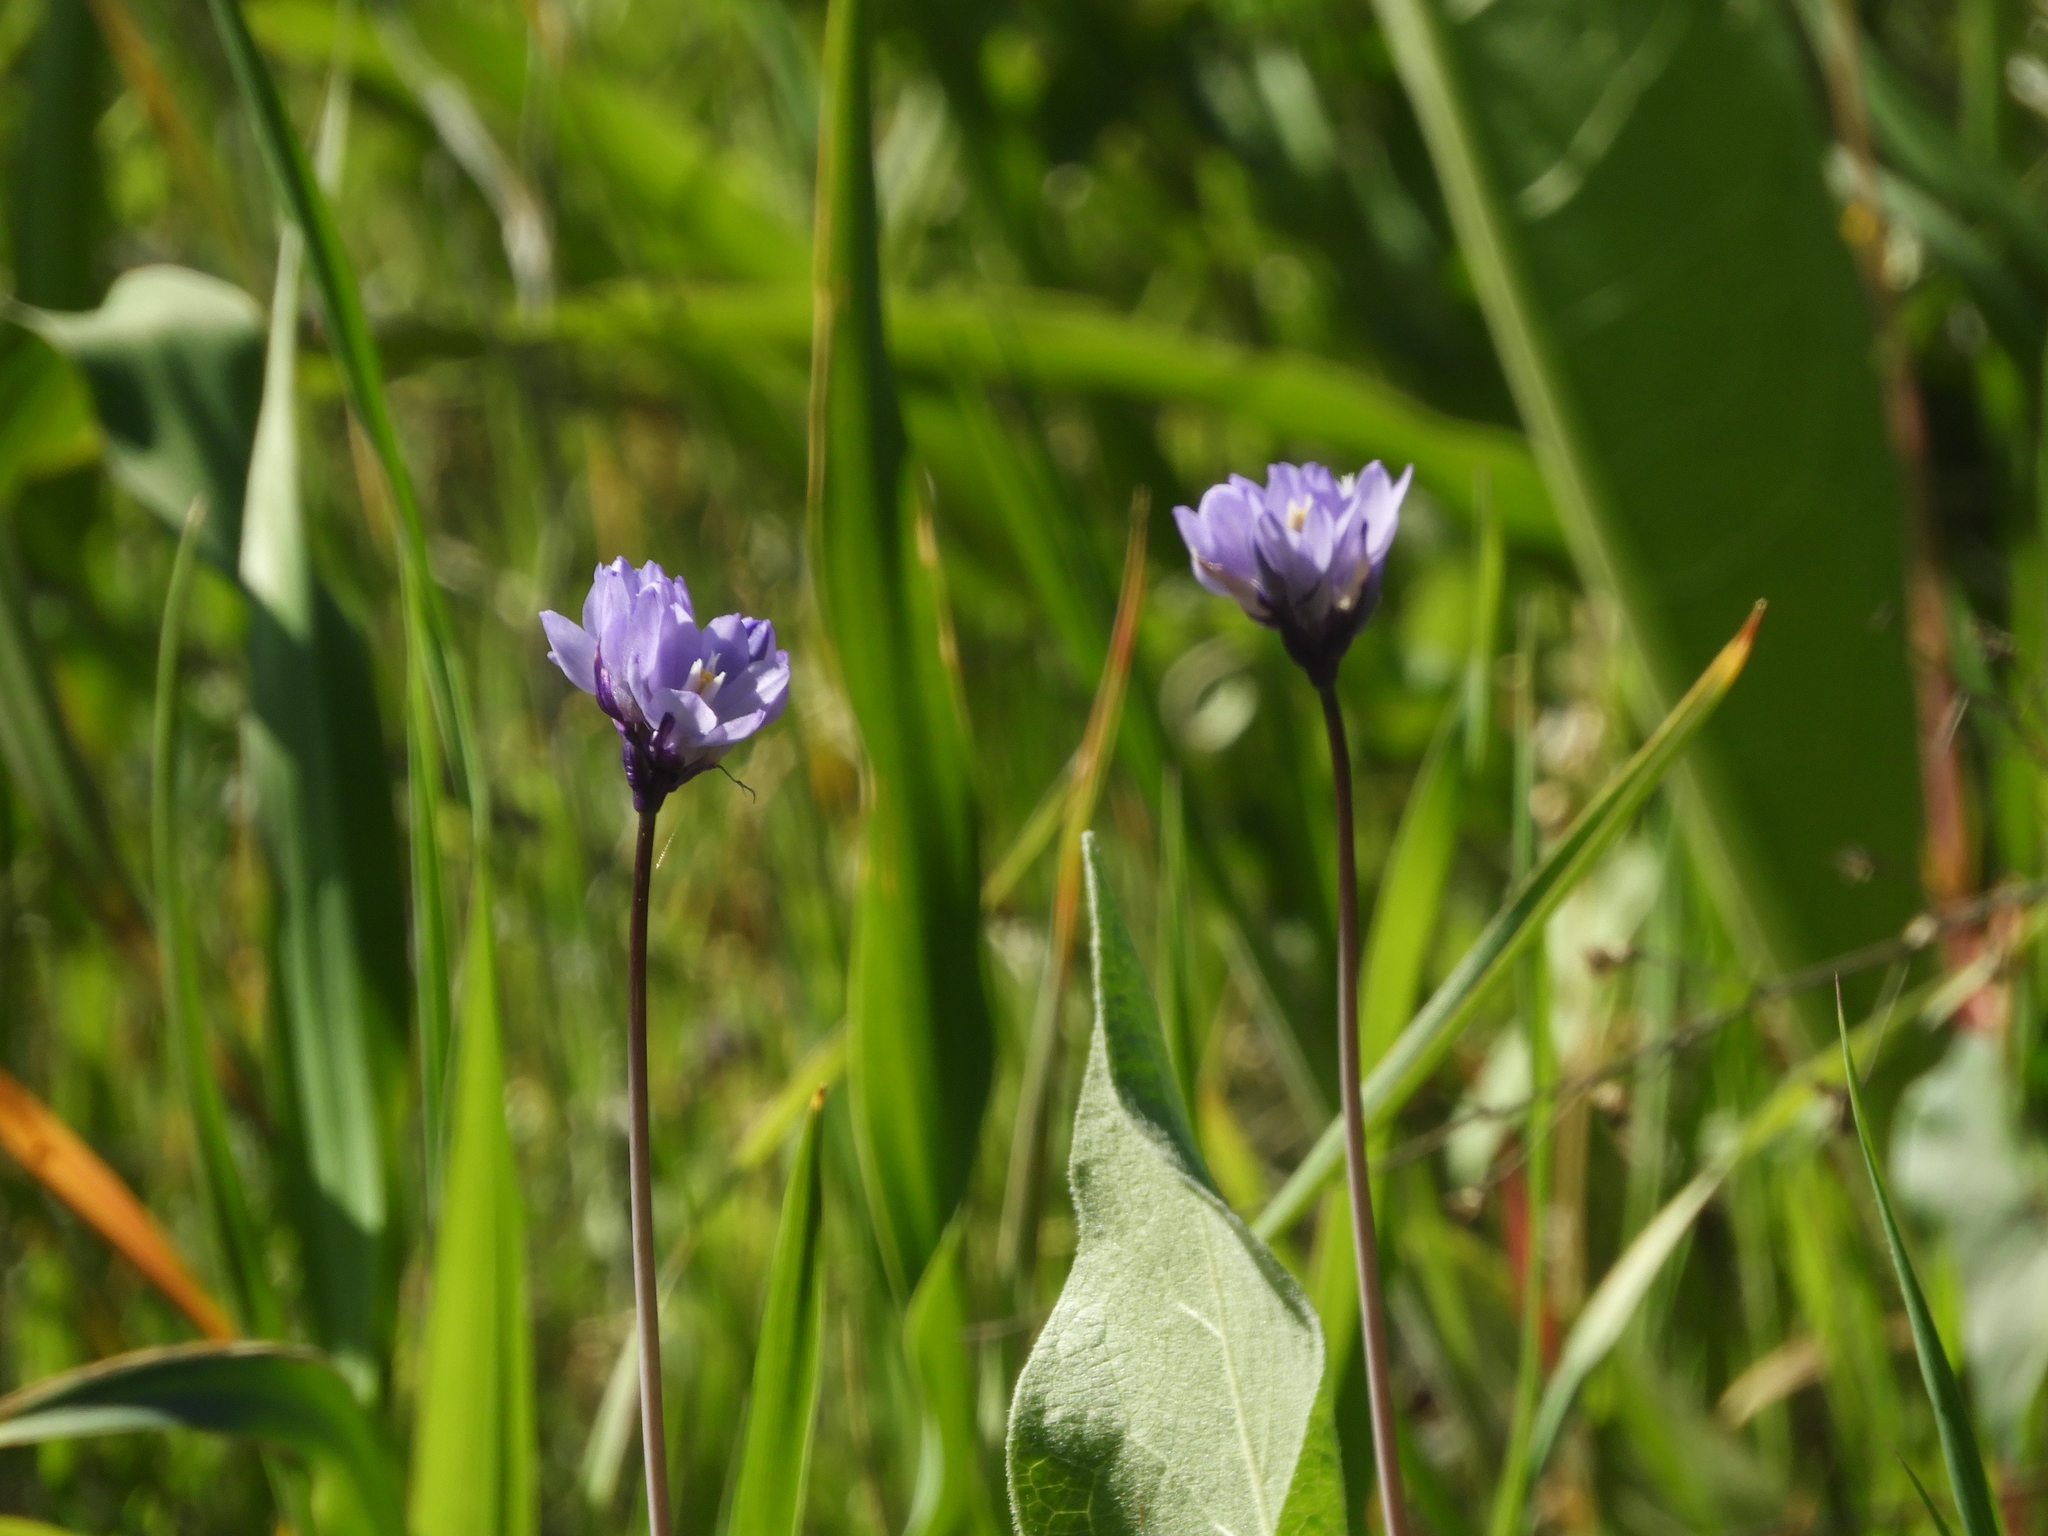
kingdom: Plantae
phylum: Tracheophyta
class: Liliopsida
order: Asparagales
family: Asparagaceae
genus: Dipterostemon
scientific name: Dipterostemon capitatus
